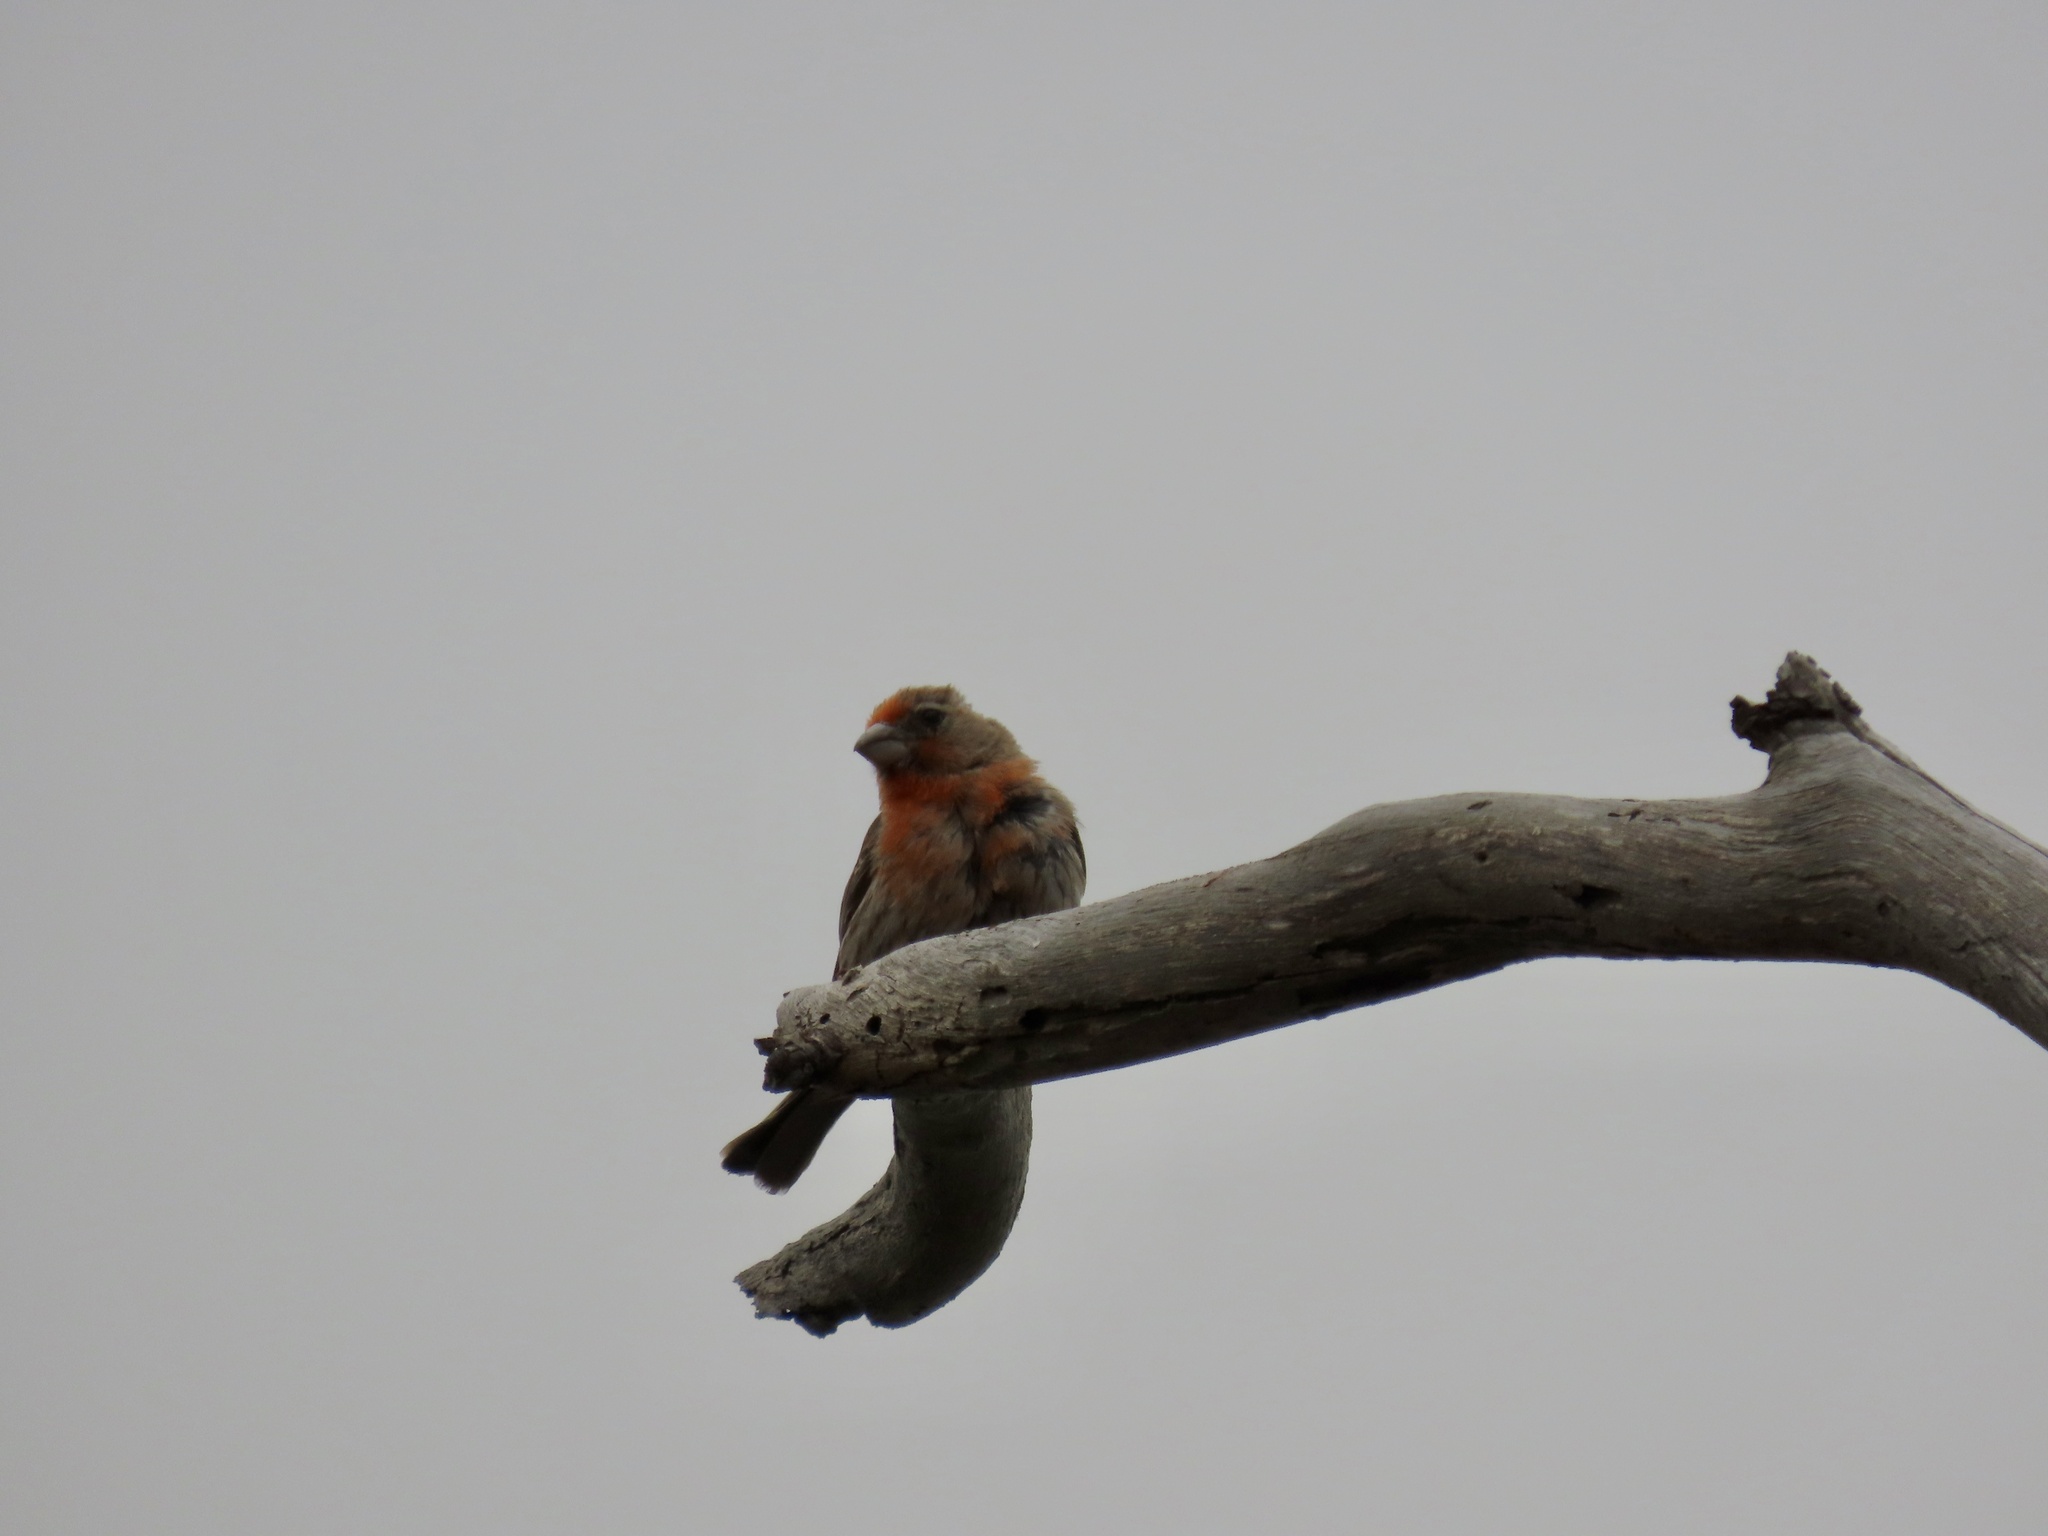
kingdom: Animalia
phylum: Chordata
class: Aves
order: Passeriformes
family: Fringillidae
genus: Haemorhous
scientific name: Haemorhous mexicanus
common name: House finch
